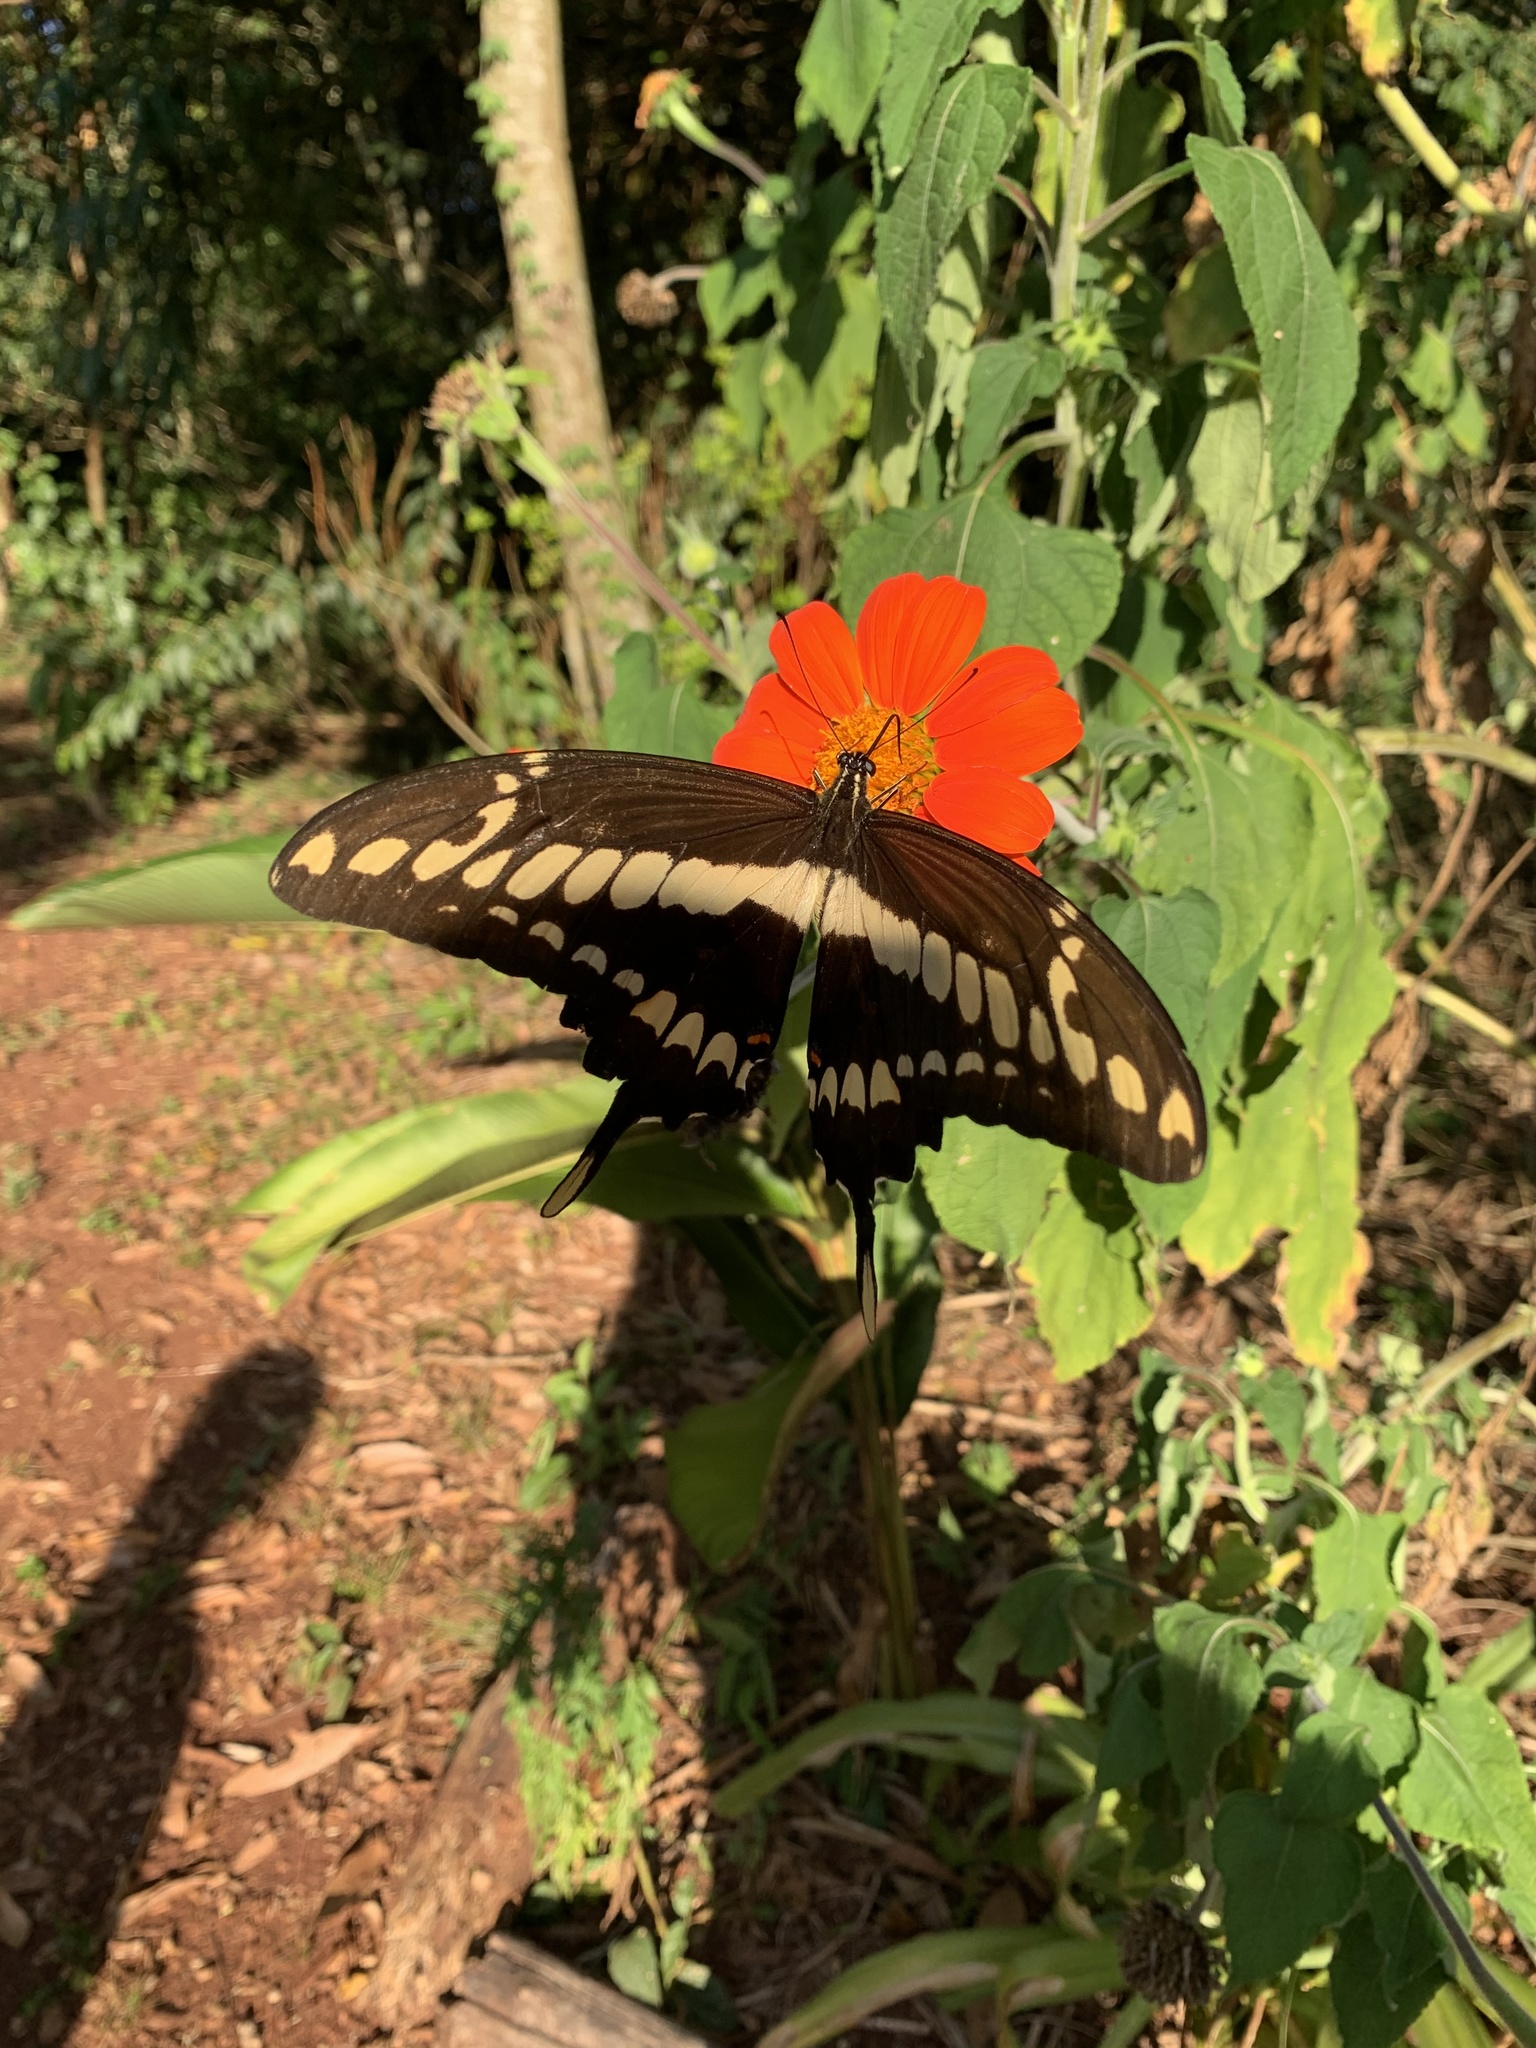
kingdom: Animalia
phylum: Arthropoda
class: Insecta
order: Lepidoptera
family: Papilionidae
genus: Papilio
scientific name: Papilio thoas
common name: King swallowtail
